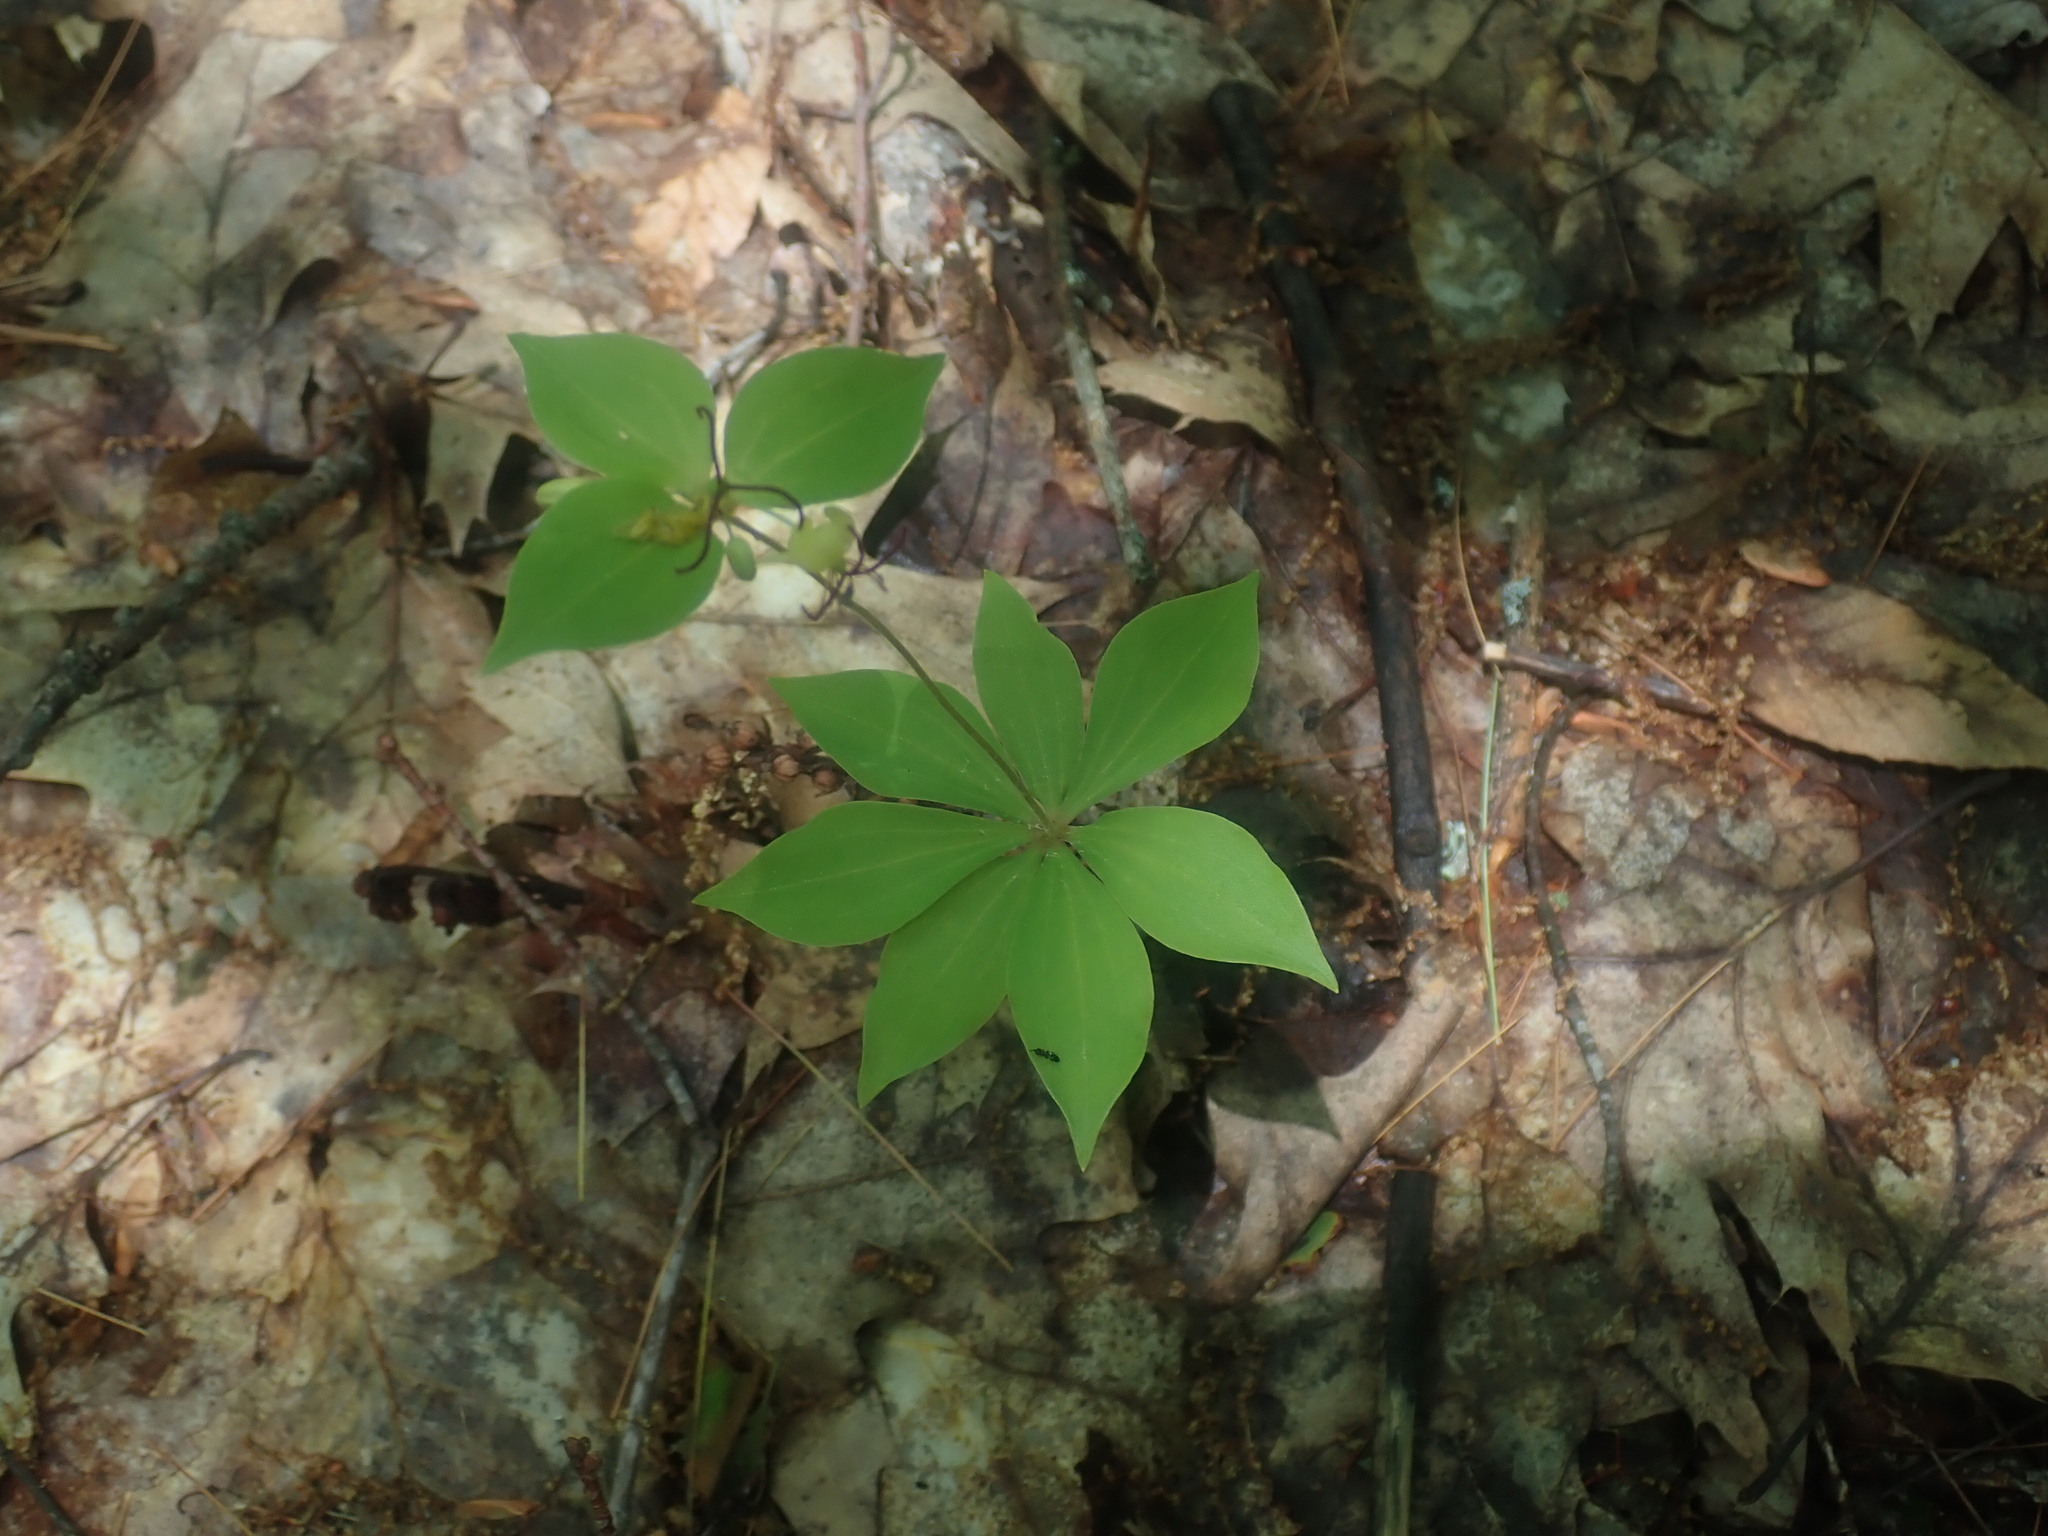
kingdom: Plantae
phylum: Tracheophyta
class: Liliopsida
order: Liliales
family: Liliaceae
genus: Medeola
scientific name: Medeola virginiana
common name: Indian cucumber-root
